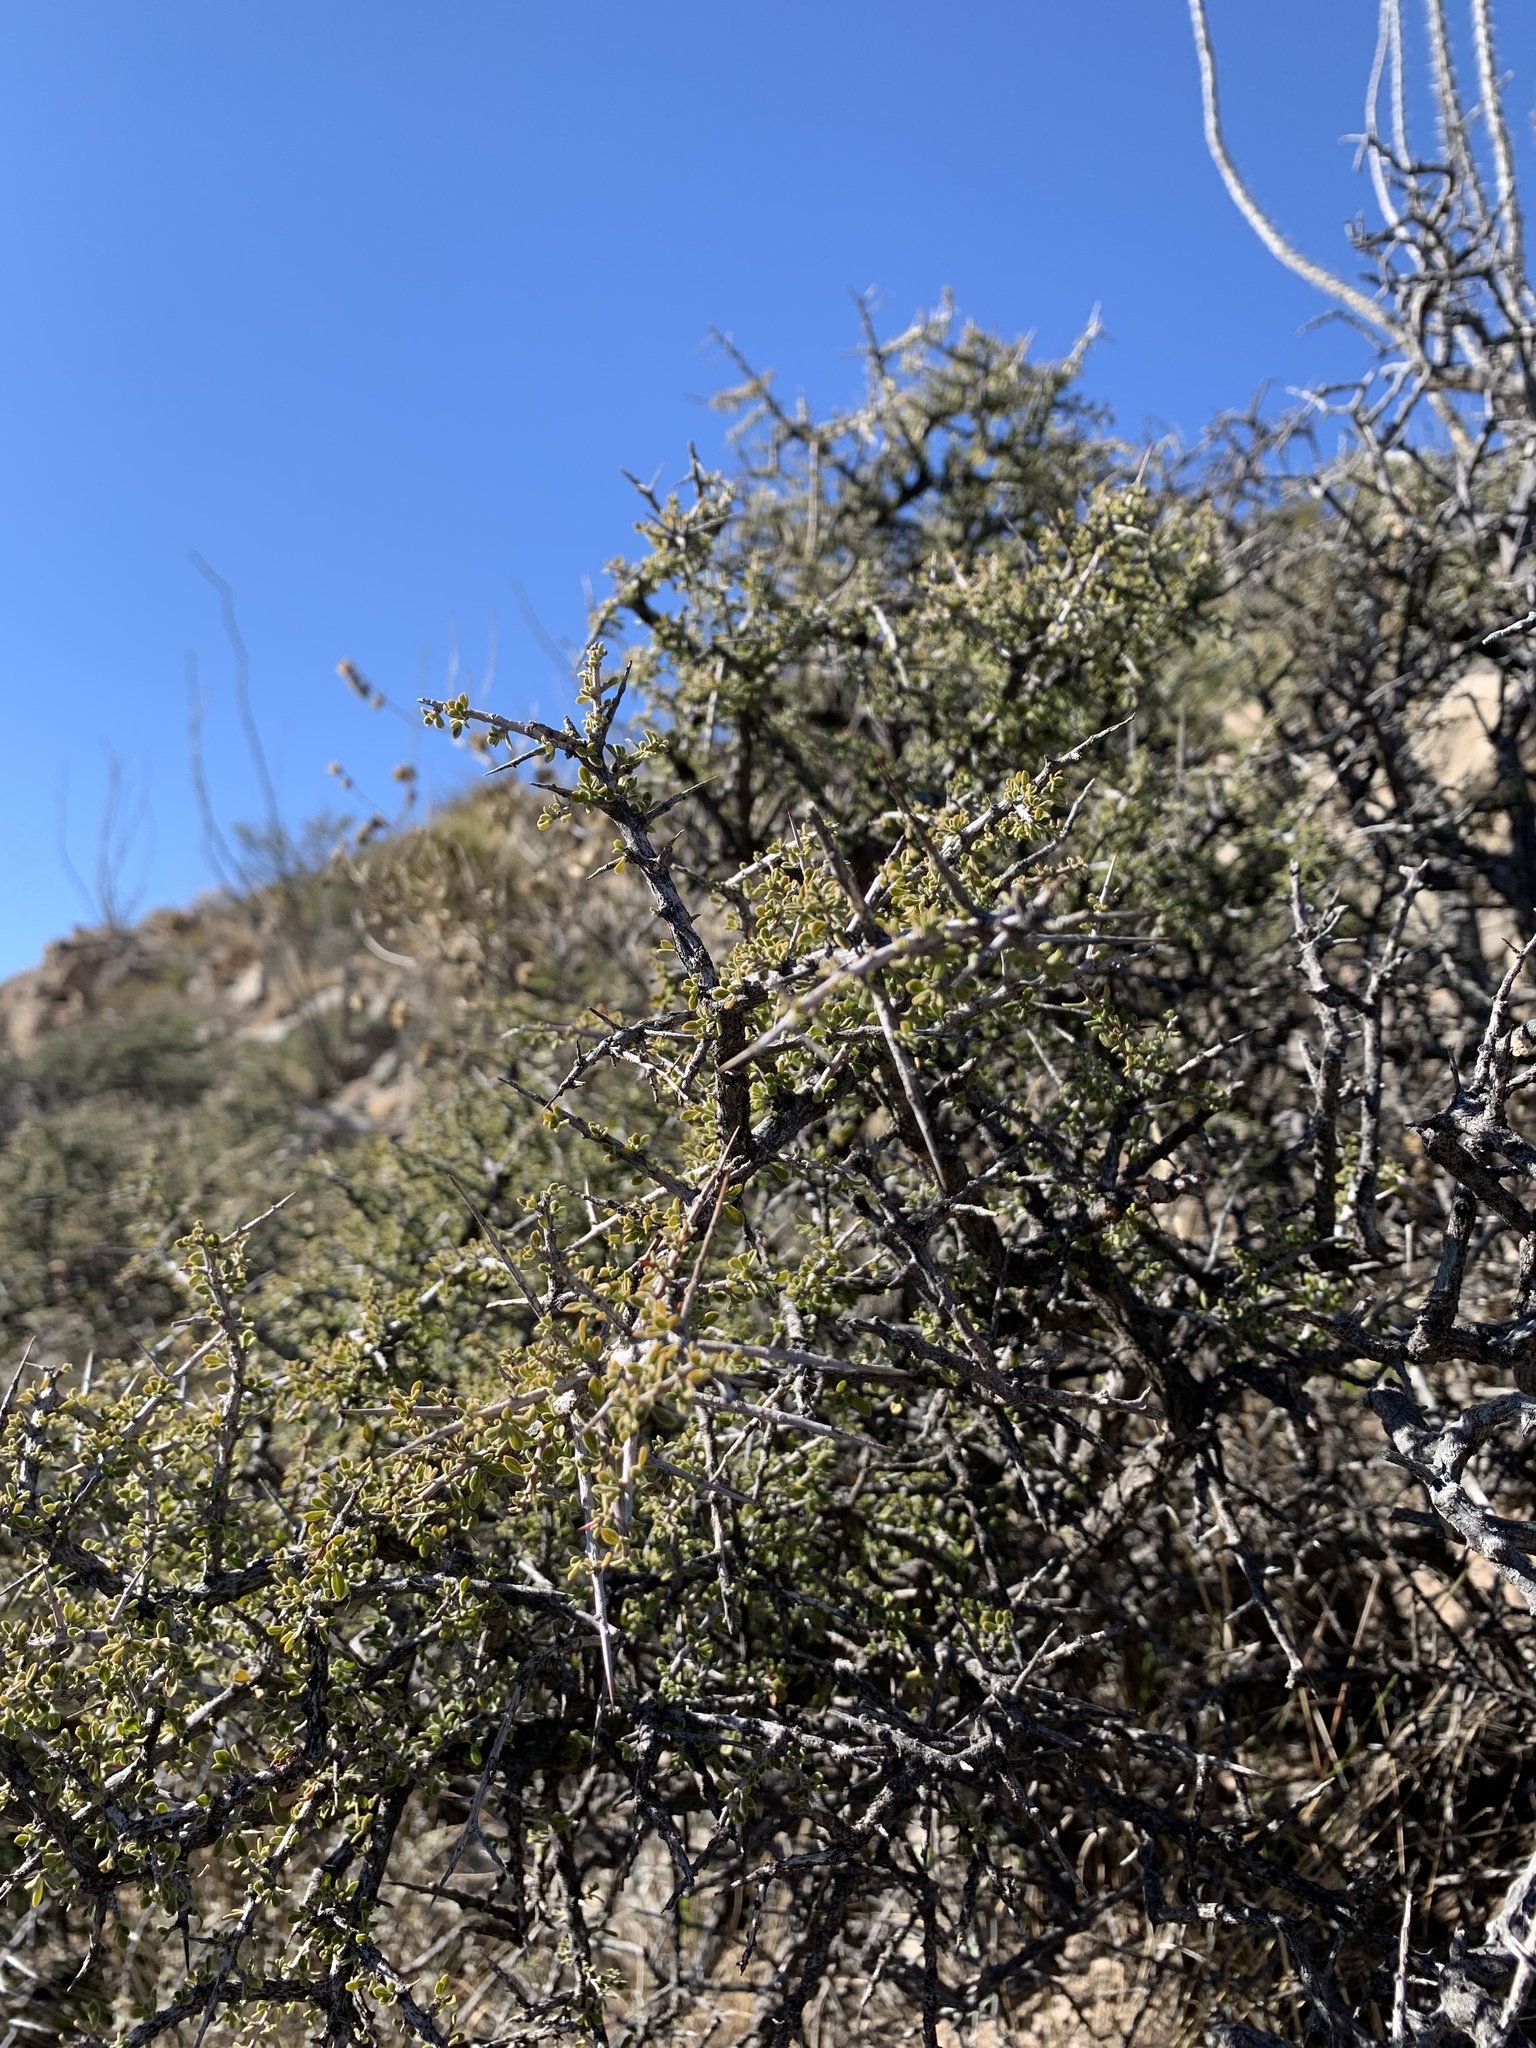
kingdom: Plantae
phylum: Tracheophyta
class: Magnoliopsida
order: Rosales
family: Rhamnaceae
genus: Condalia
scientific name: Condalia warnockii
